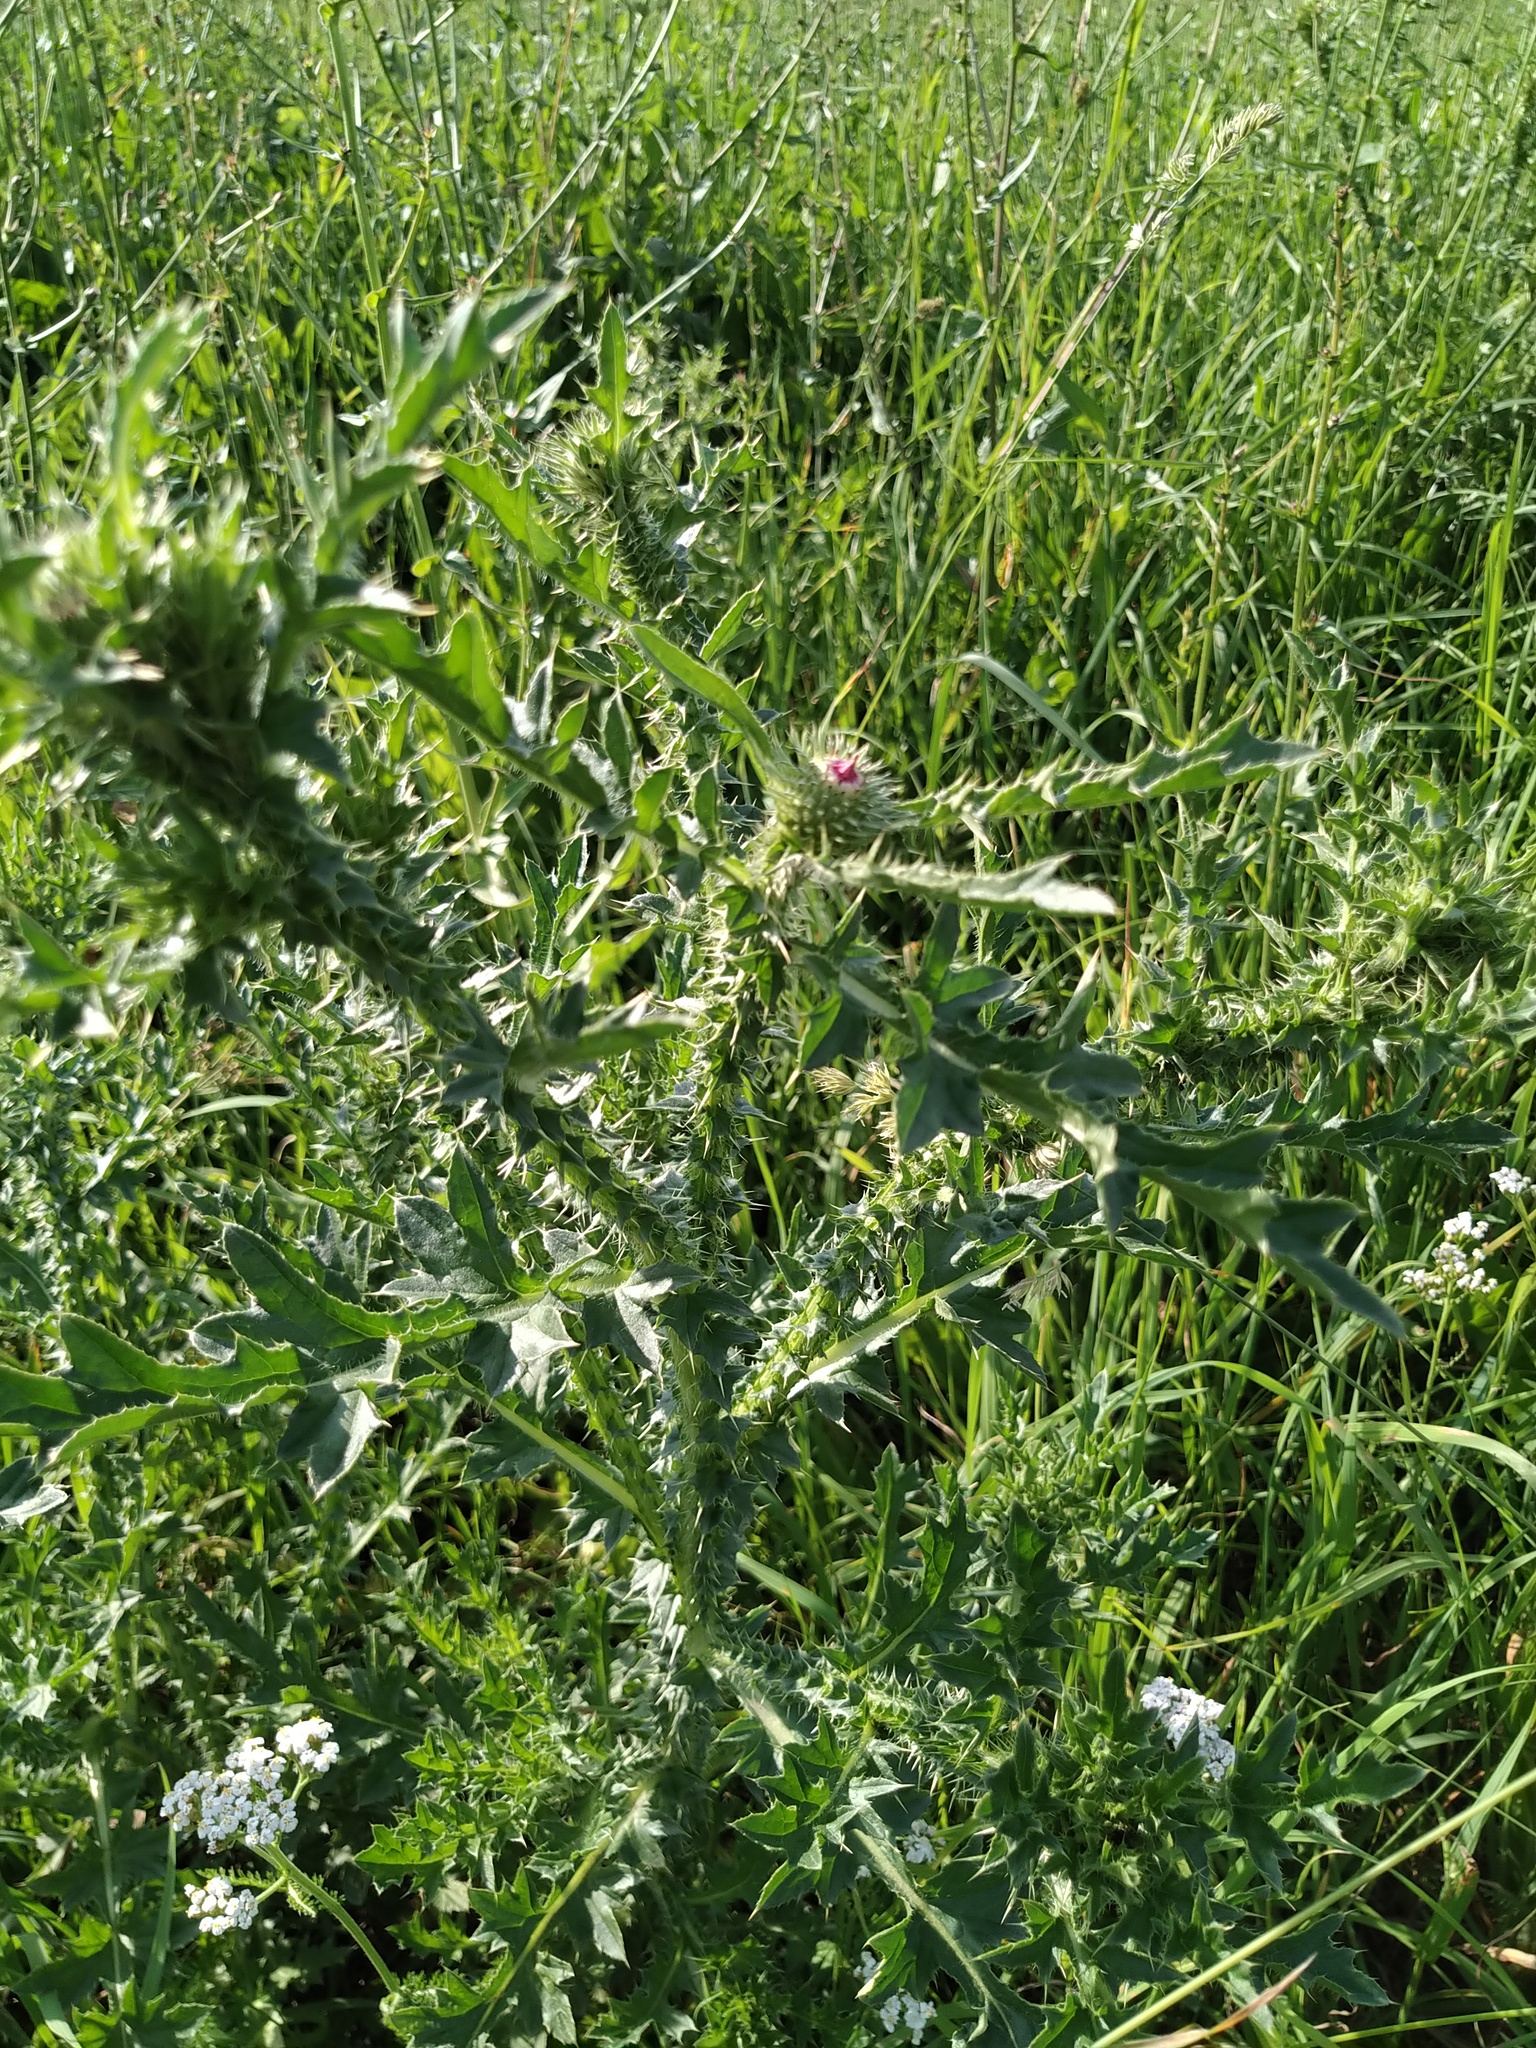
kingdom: Plantae
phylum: Tracheophyta
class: Magnoliopsida
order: Asterales
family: Asteraceae
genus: Carduus
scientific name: Carduus acanthoides
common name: Plumeless thistle
